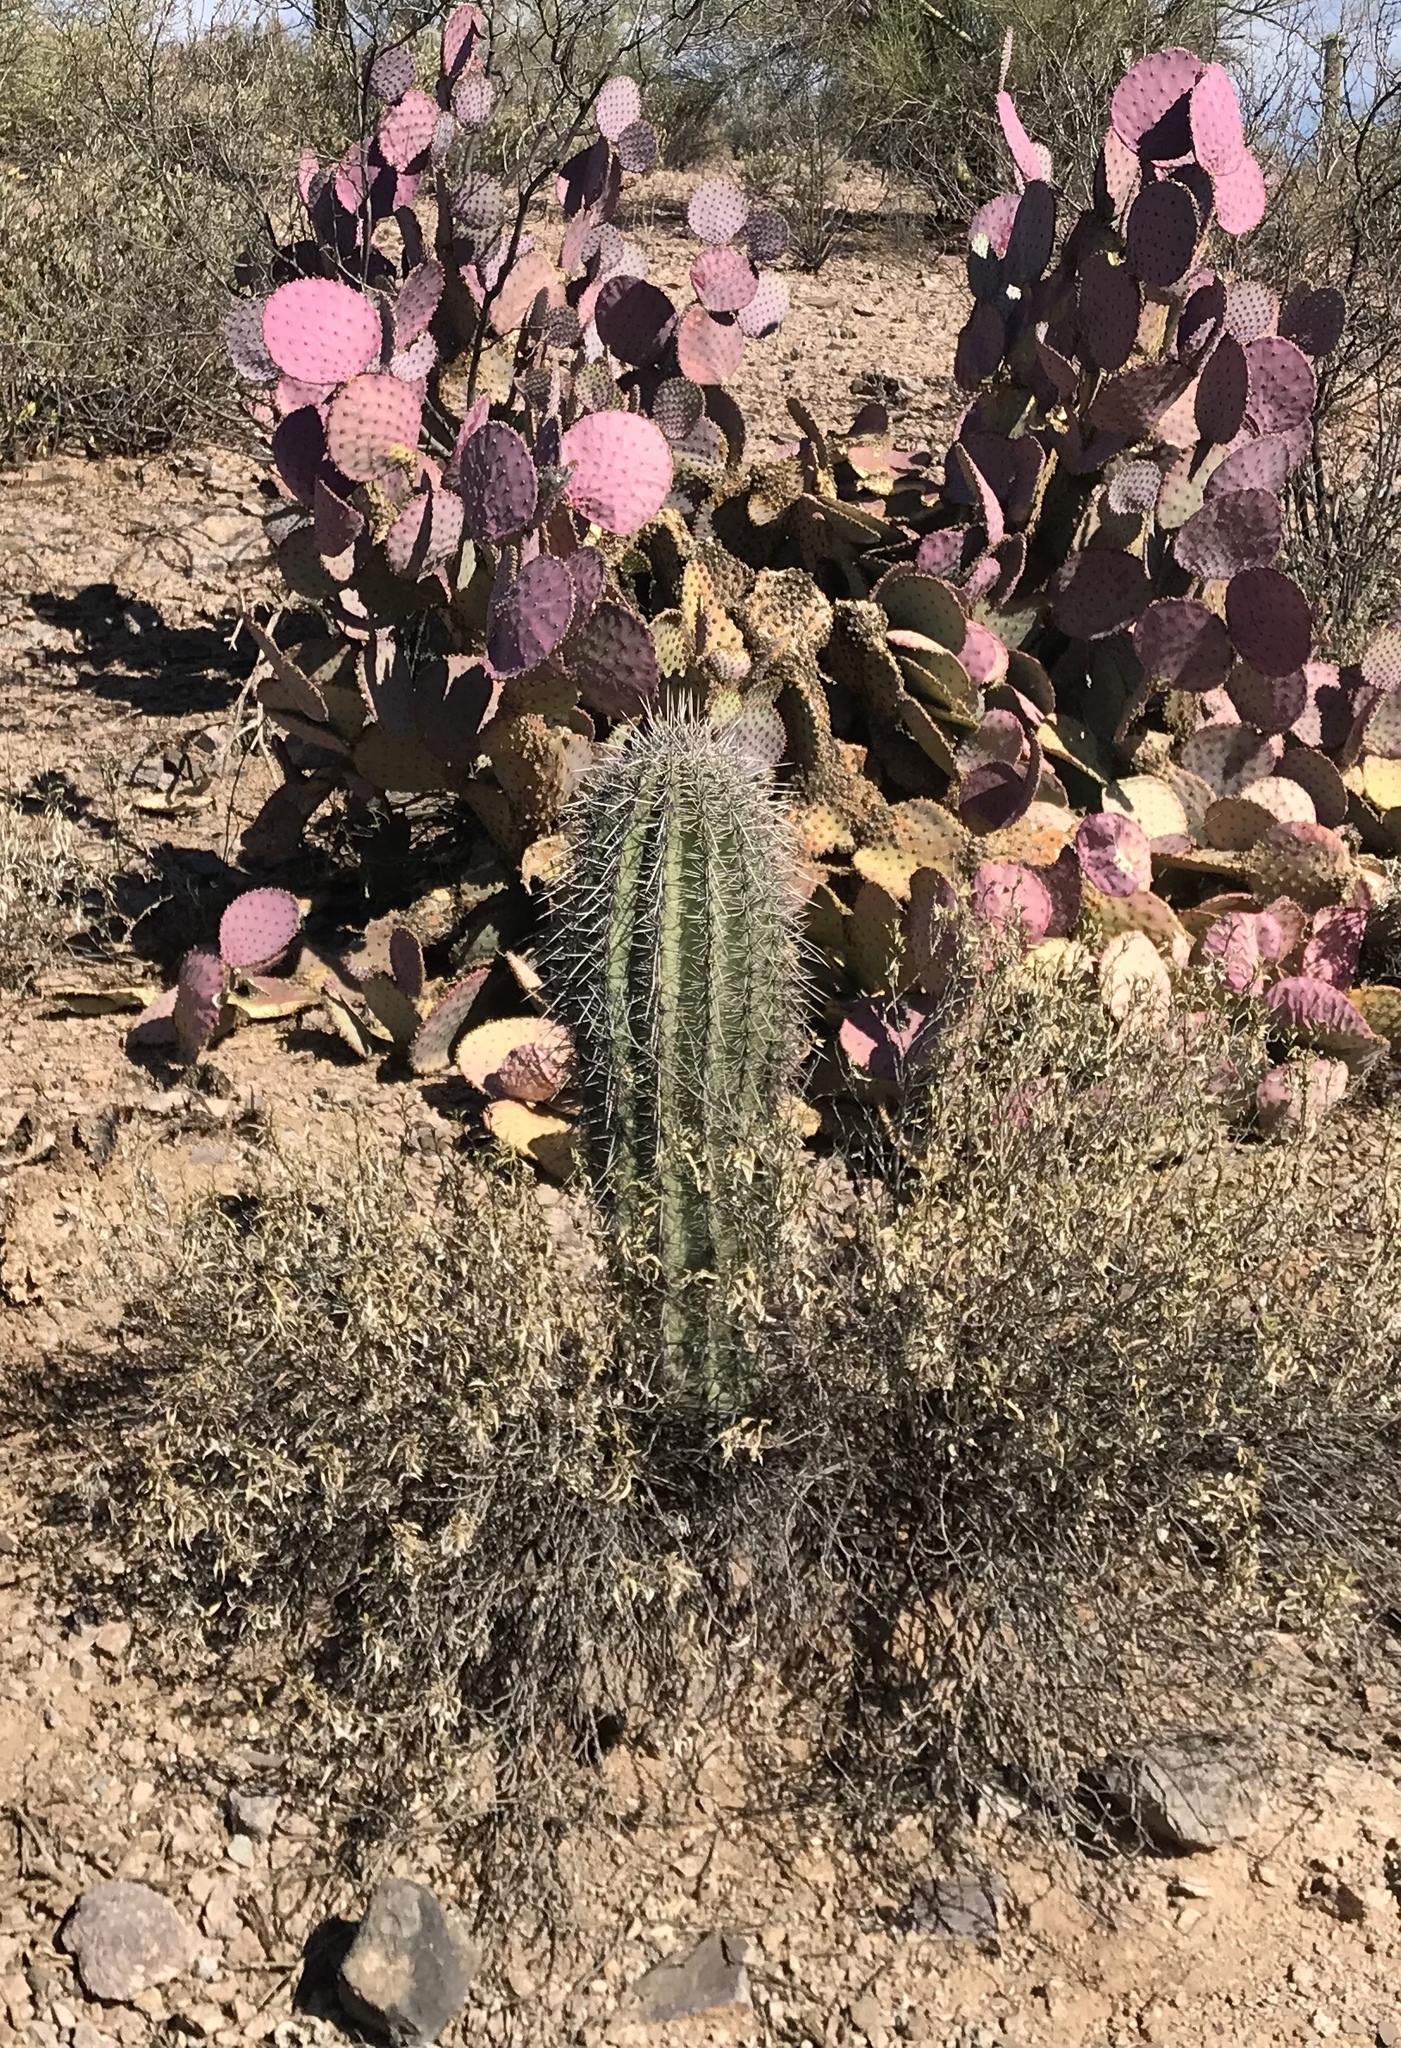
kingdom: Plantae
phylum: Tracheophyta
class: Magnoliopsida
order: Caryophyllales
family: Cactaceae
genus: Carnegiea
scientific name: Carnegiea gigantea
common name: Saguaro
